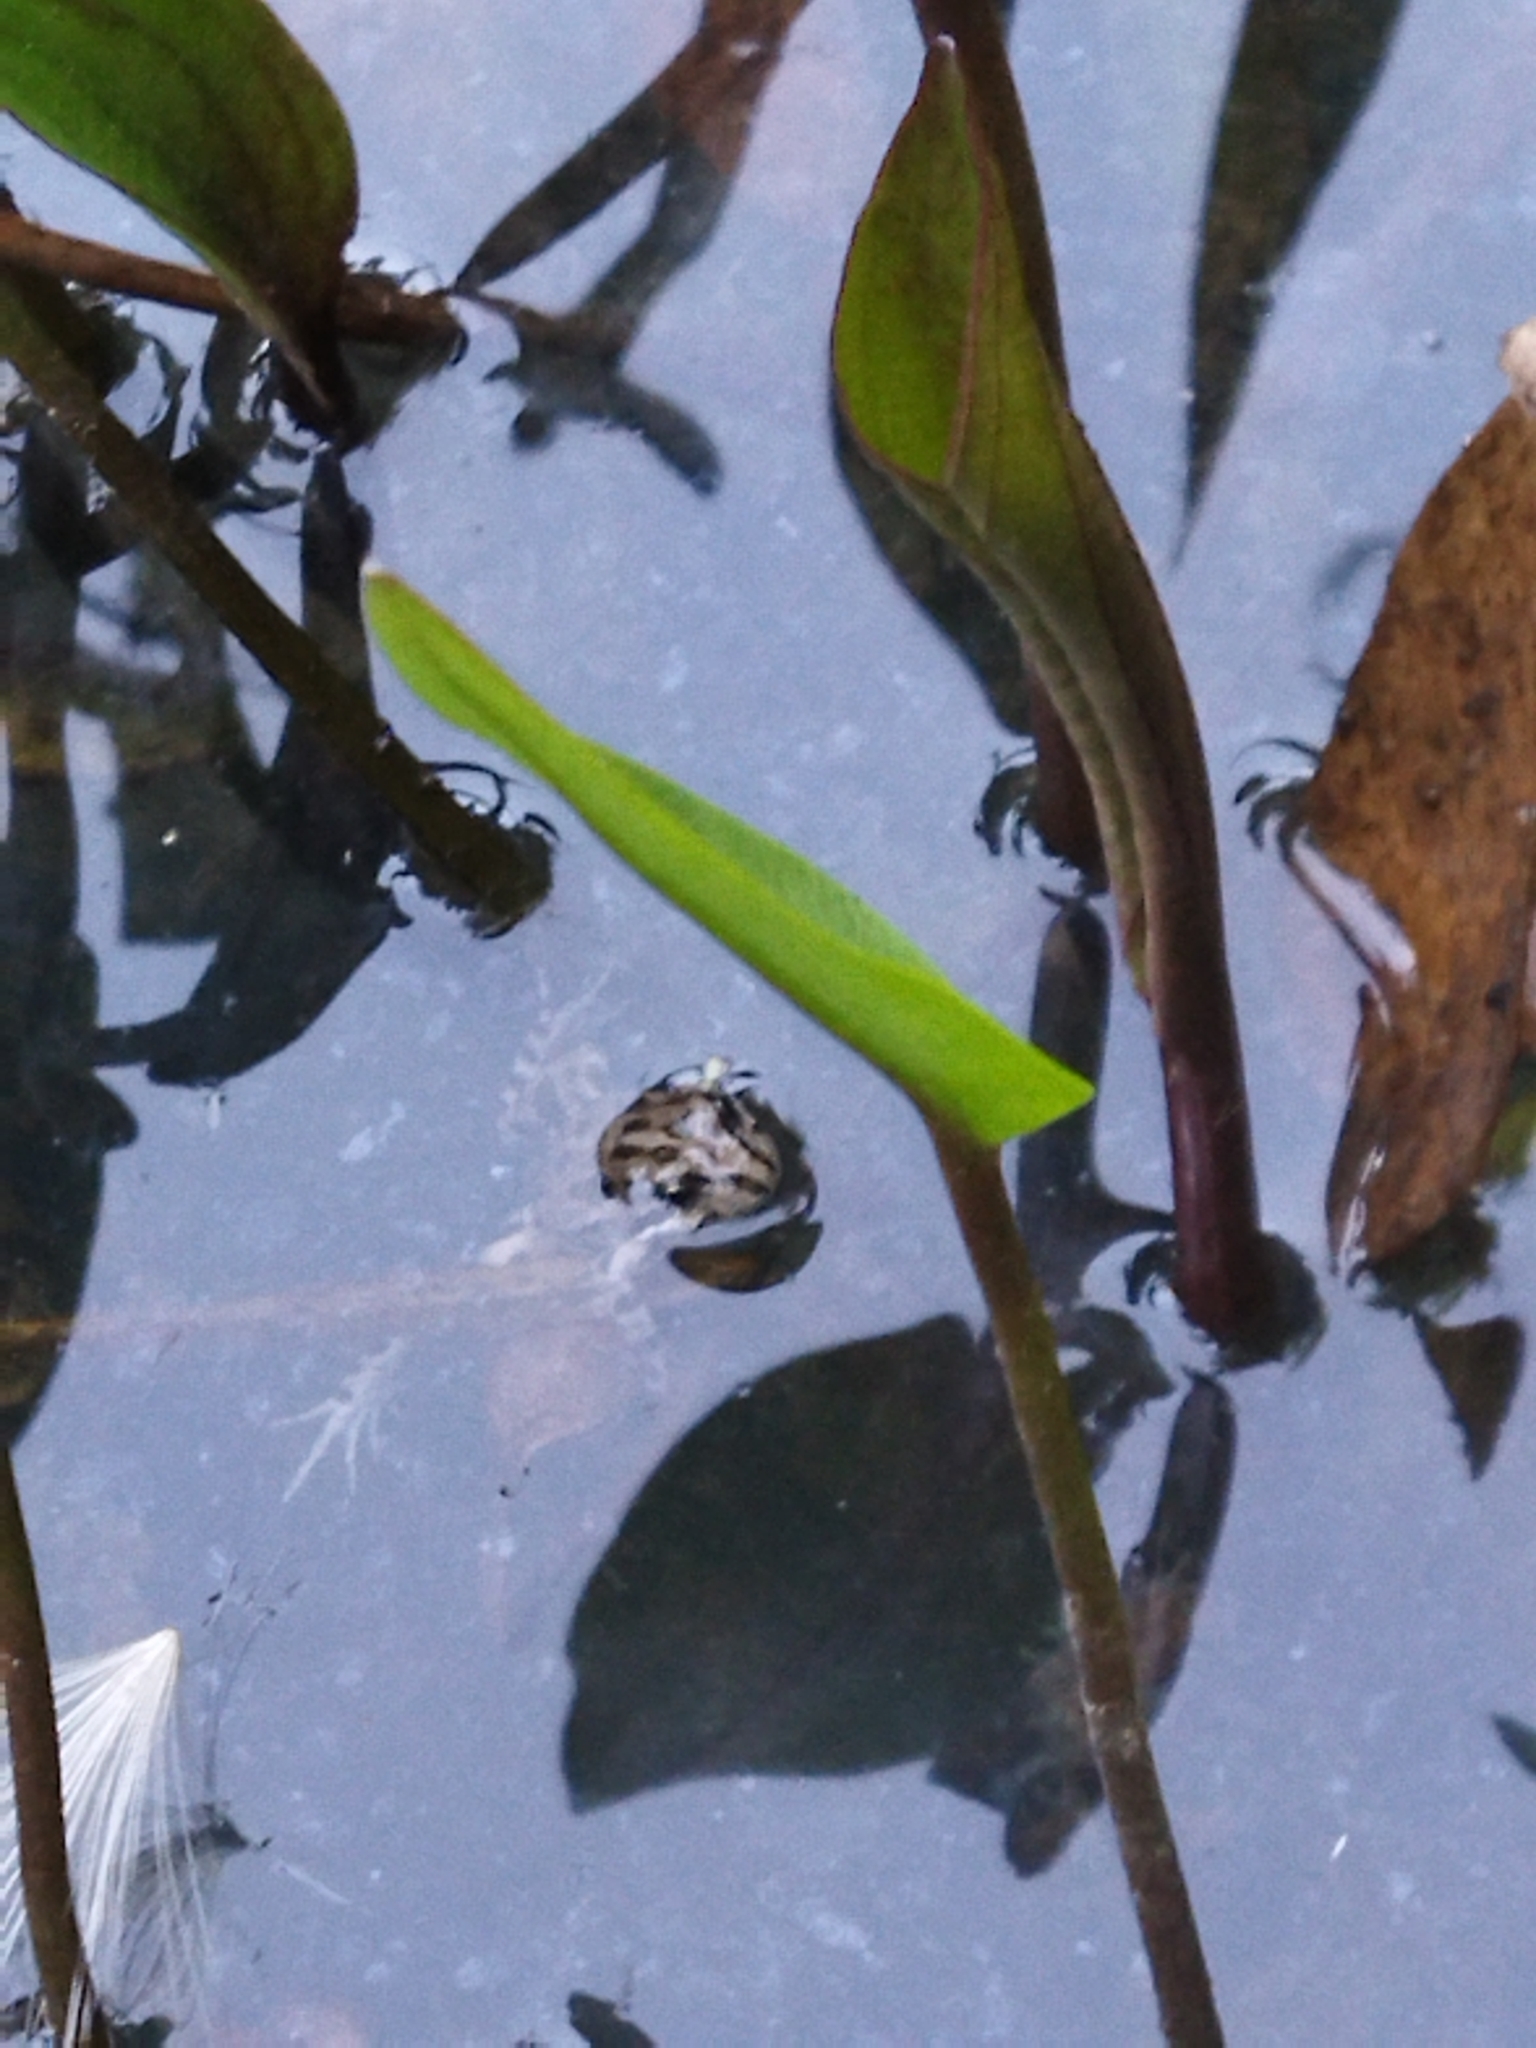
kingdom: Animalia
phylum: Chordata
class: Amphibia
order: Anura
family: Leptodactylidae
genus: Pleurodema
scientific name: Pleurodema thaul
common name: Chile four-eyed frog
